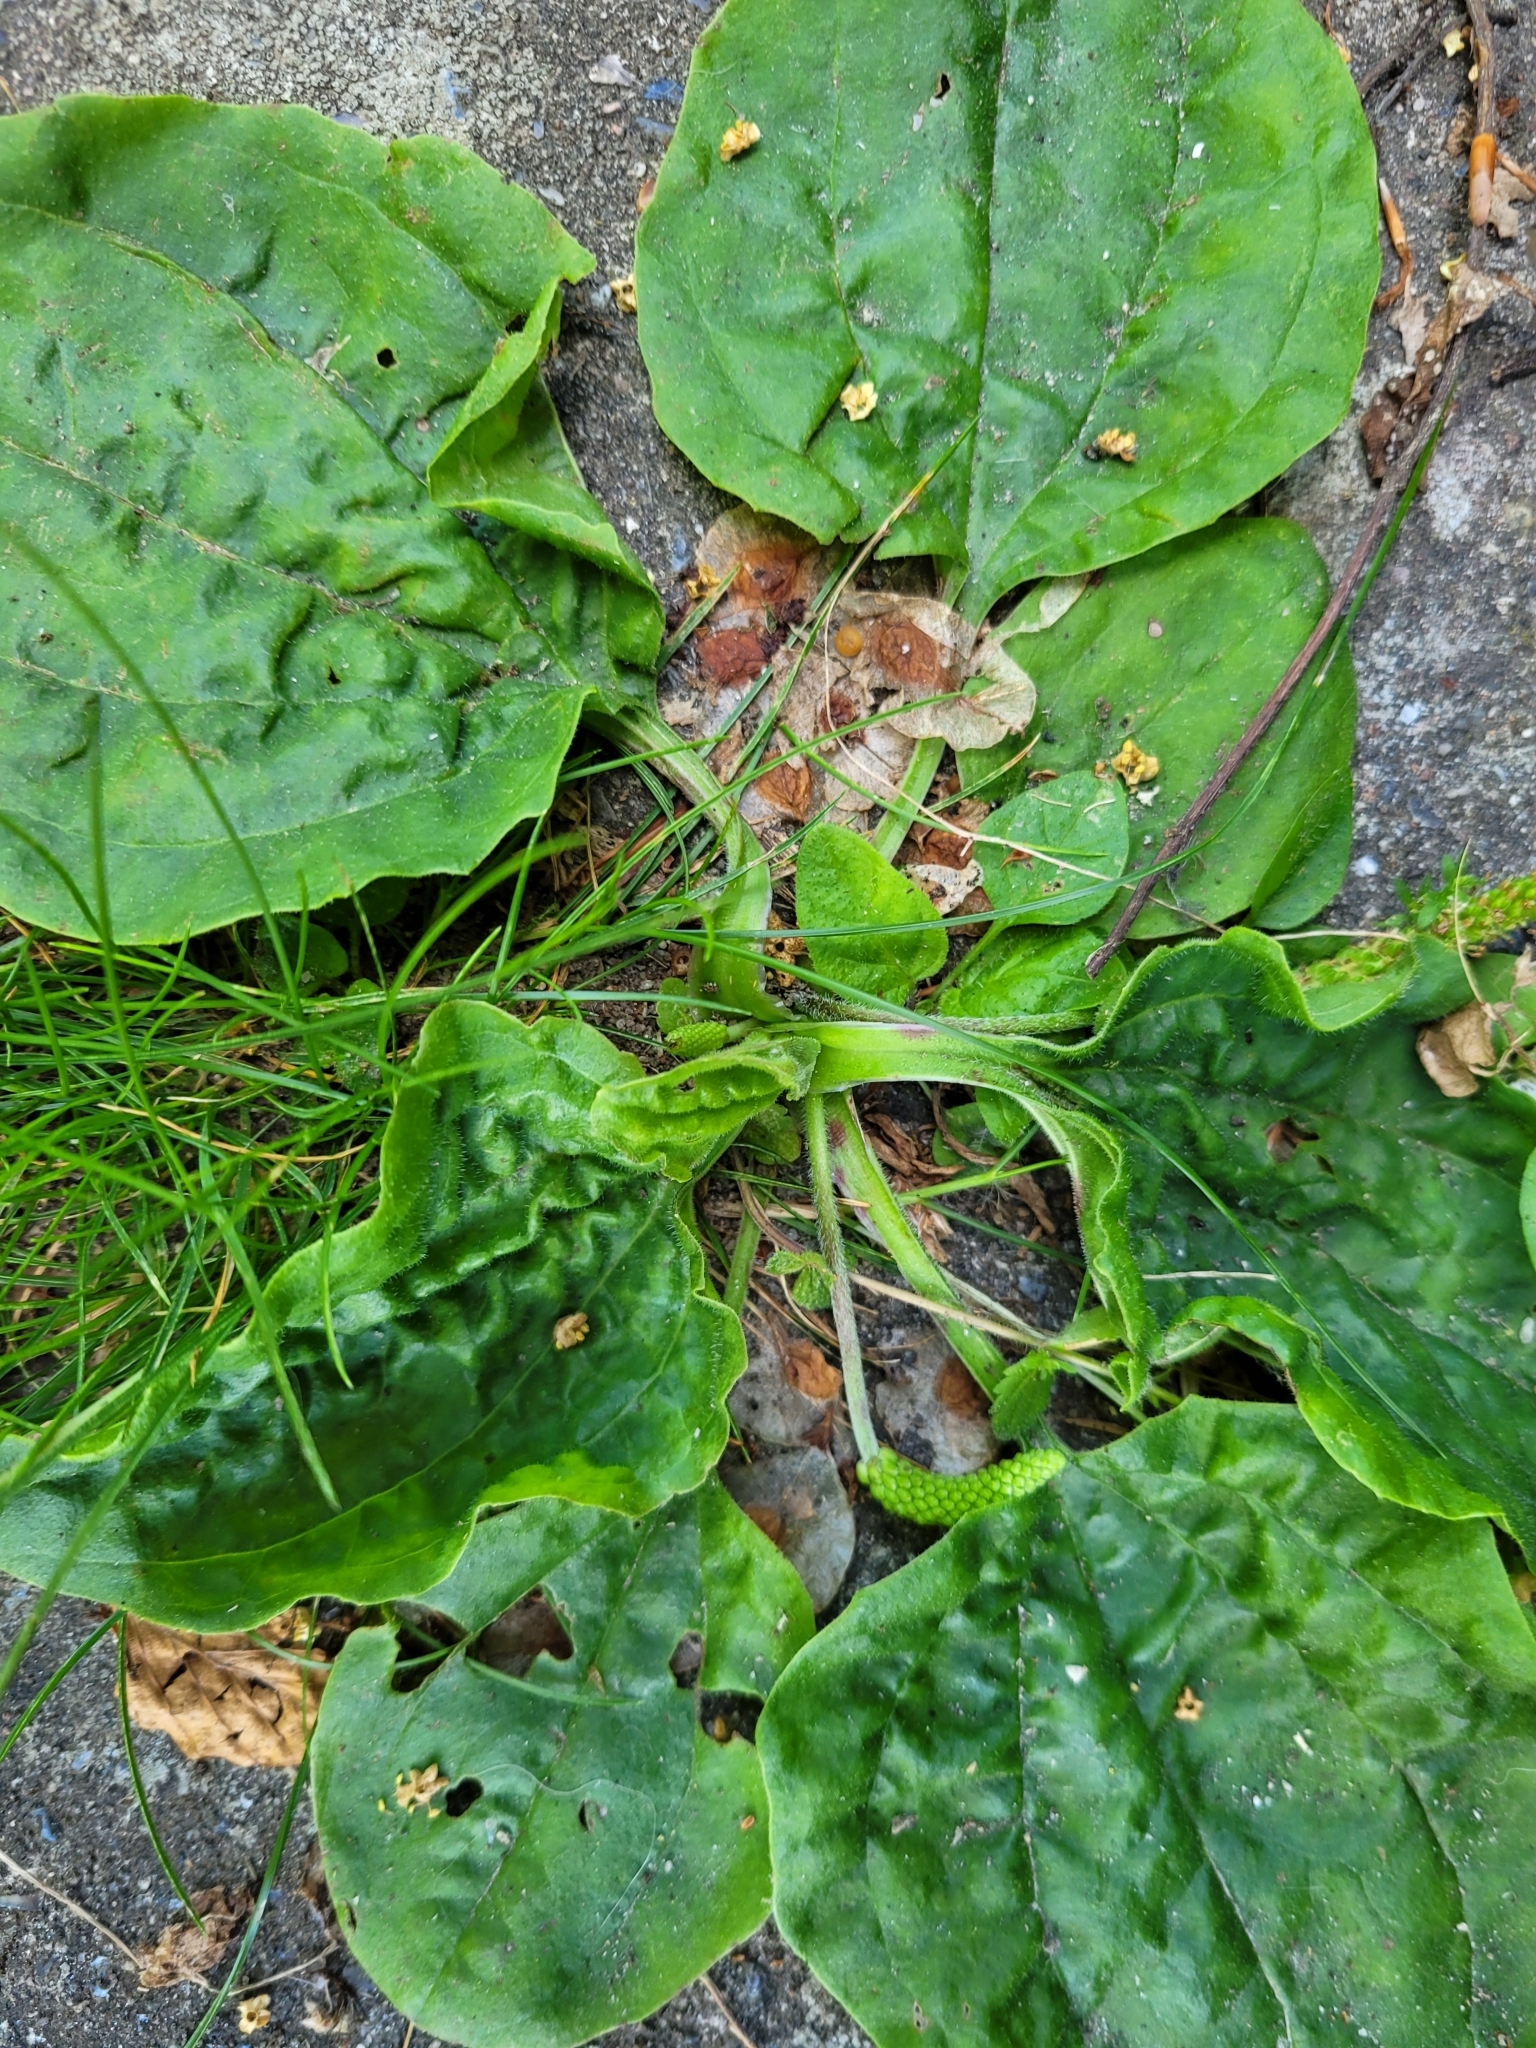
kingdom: Plantae
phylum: Tracheophyta
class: Magnoliopsida
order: Lamiales
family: Plantaginaceae
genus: Plantago
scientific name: Plantago major
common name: Common plantain
